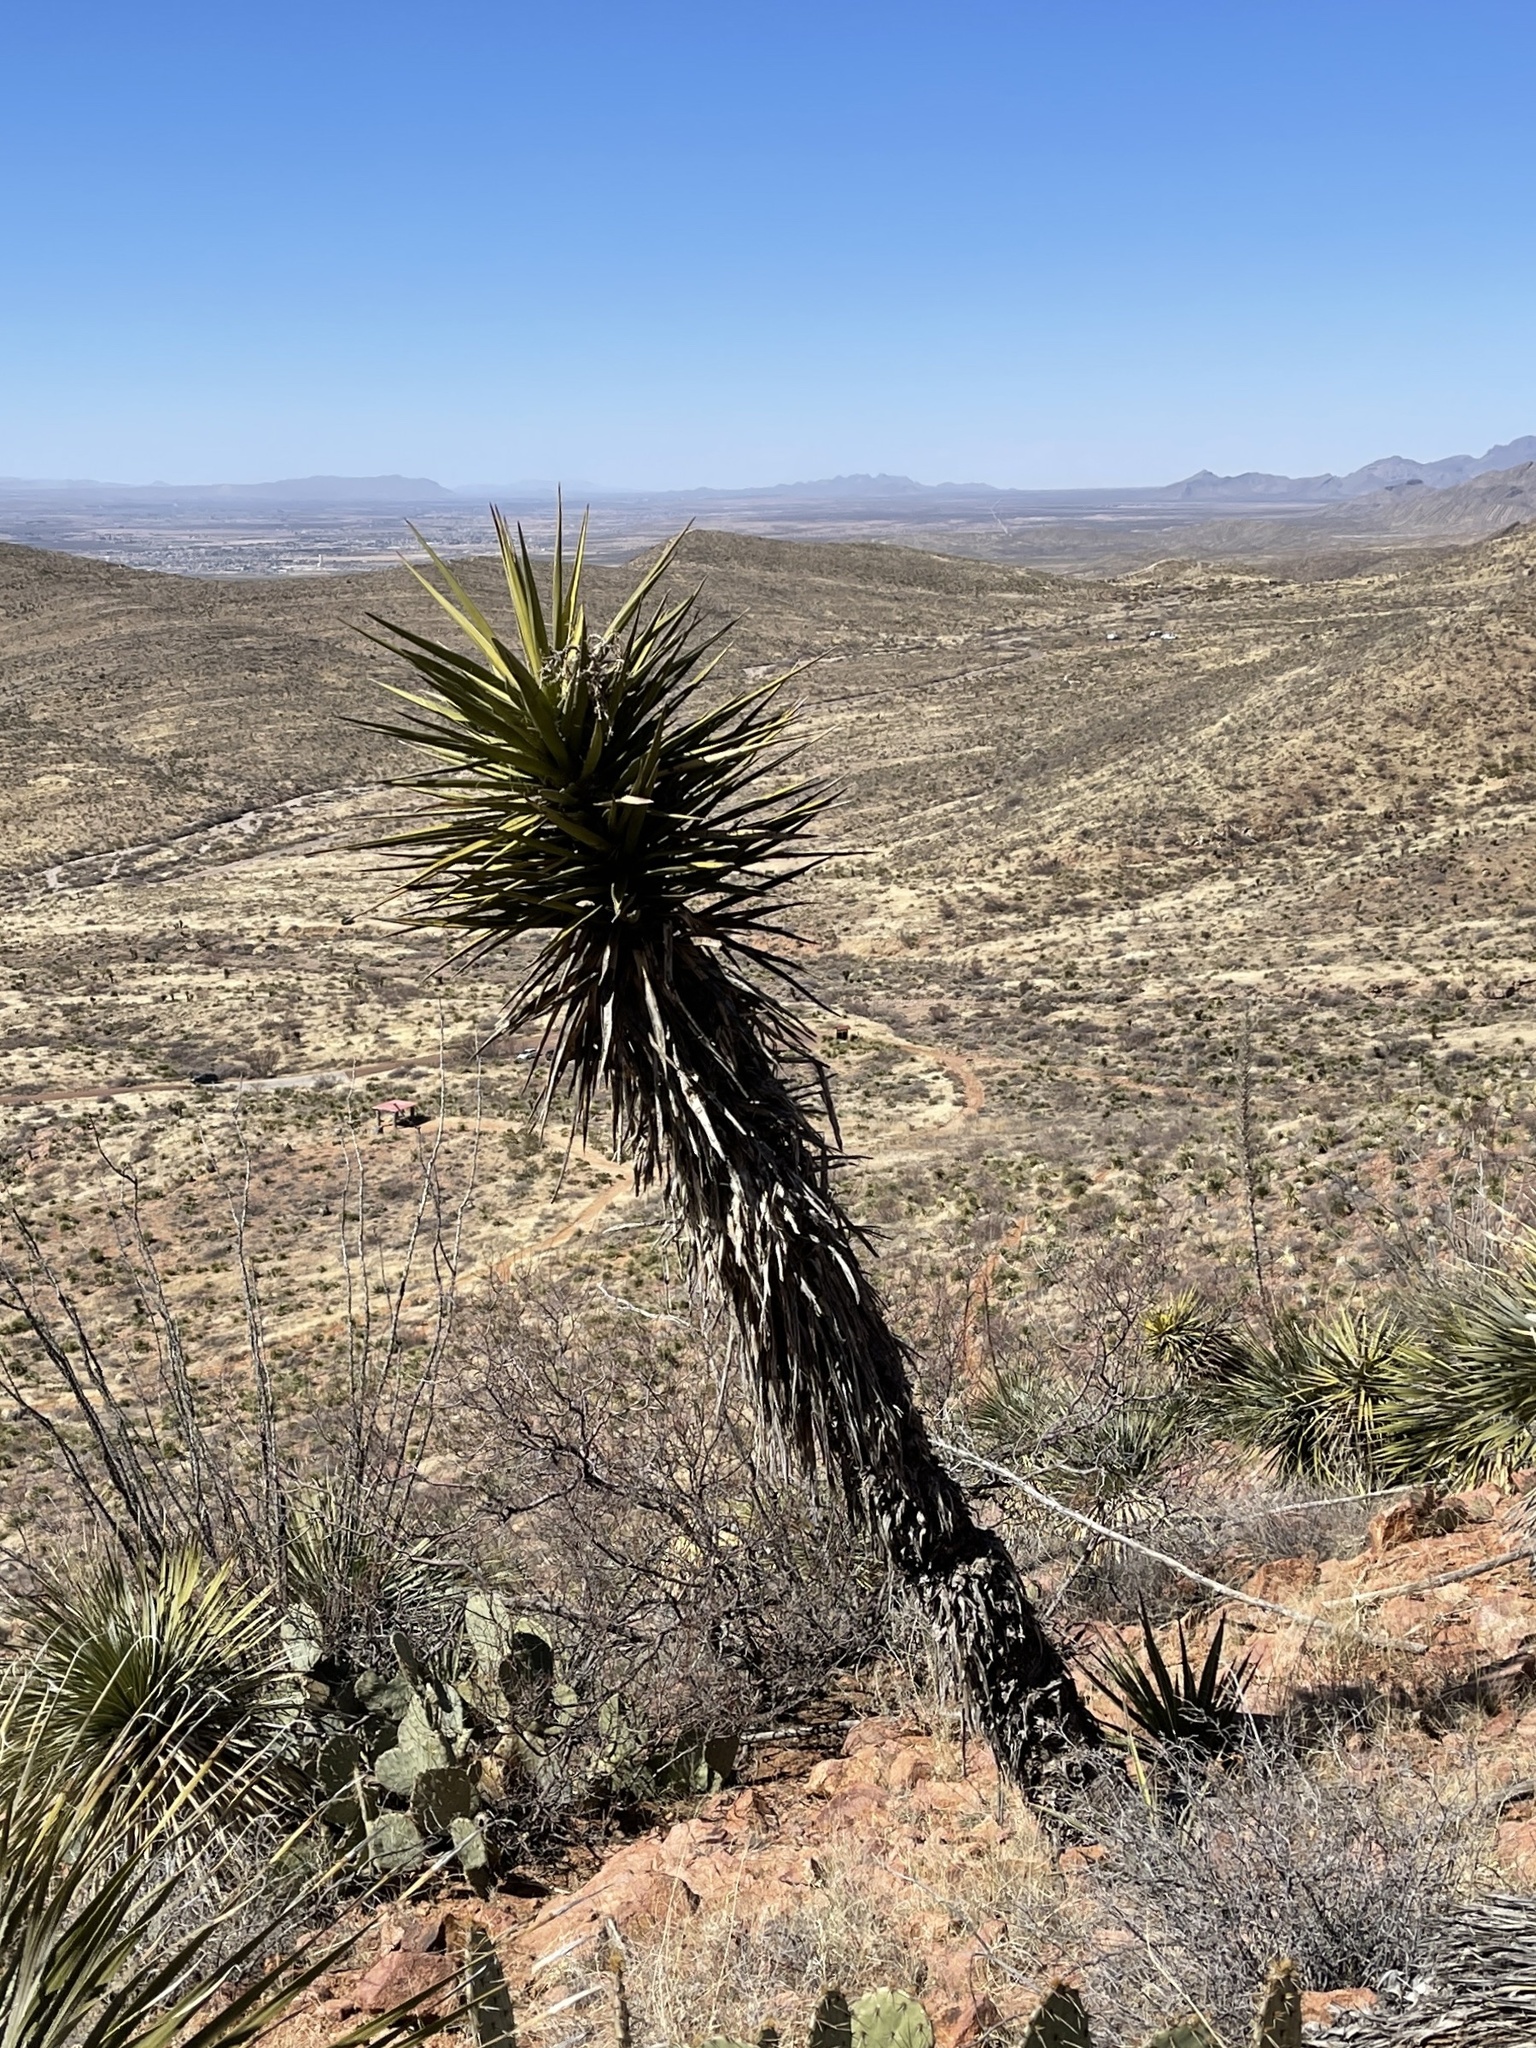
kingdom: Plantae
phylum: Tracheophyta
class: Liliopsida
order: Asparagales
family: Asparagaceae
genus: Yucca
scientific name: Yucca treculiana
